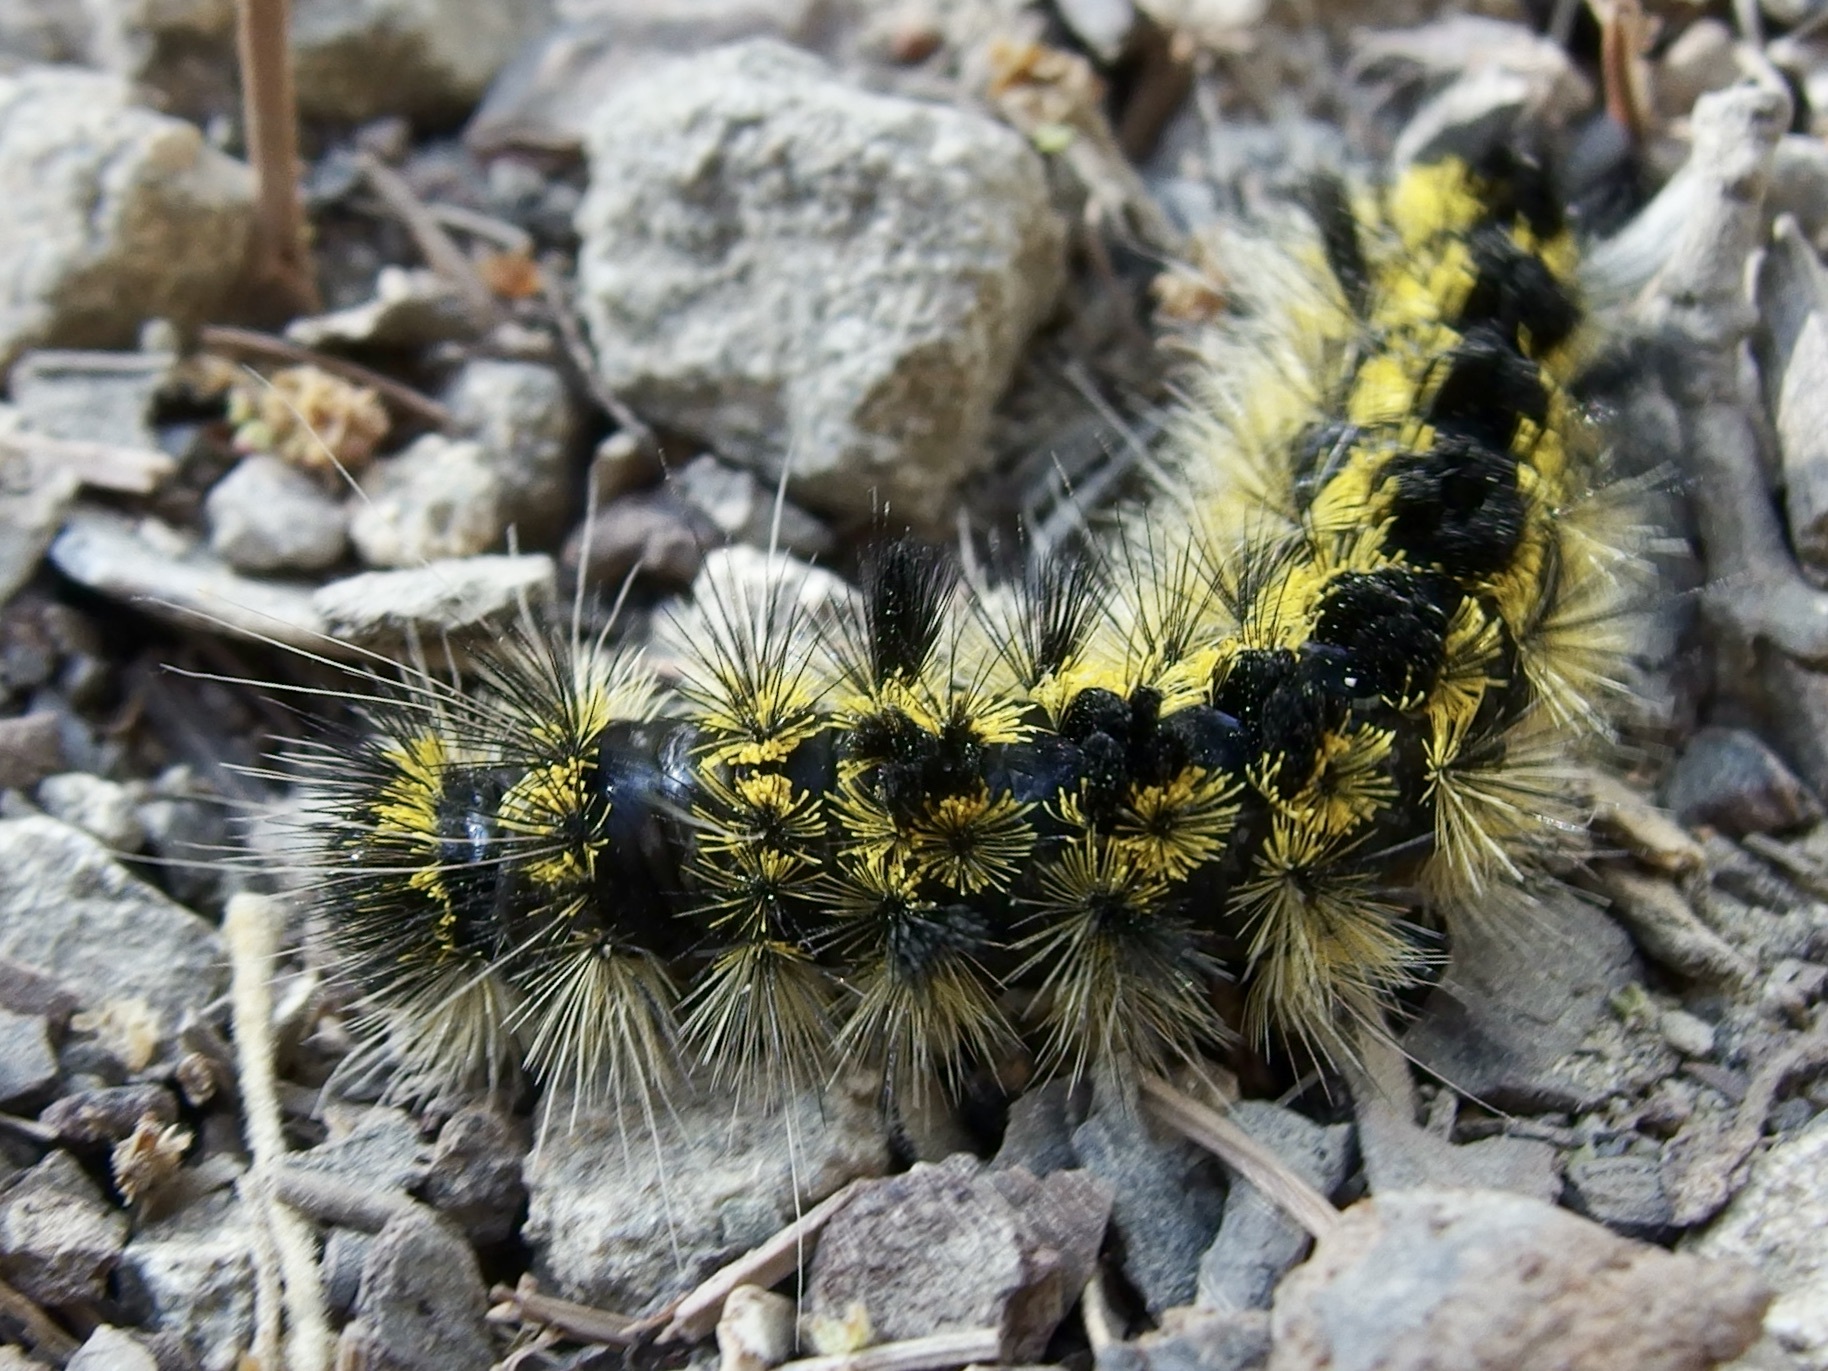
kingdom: Animalia
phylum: Arthropoda
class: Insecta
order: Lepidoptera
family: Erebidae
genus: Lophocampa
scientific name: Lophocampa argentata
